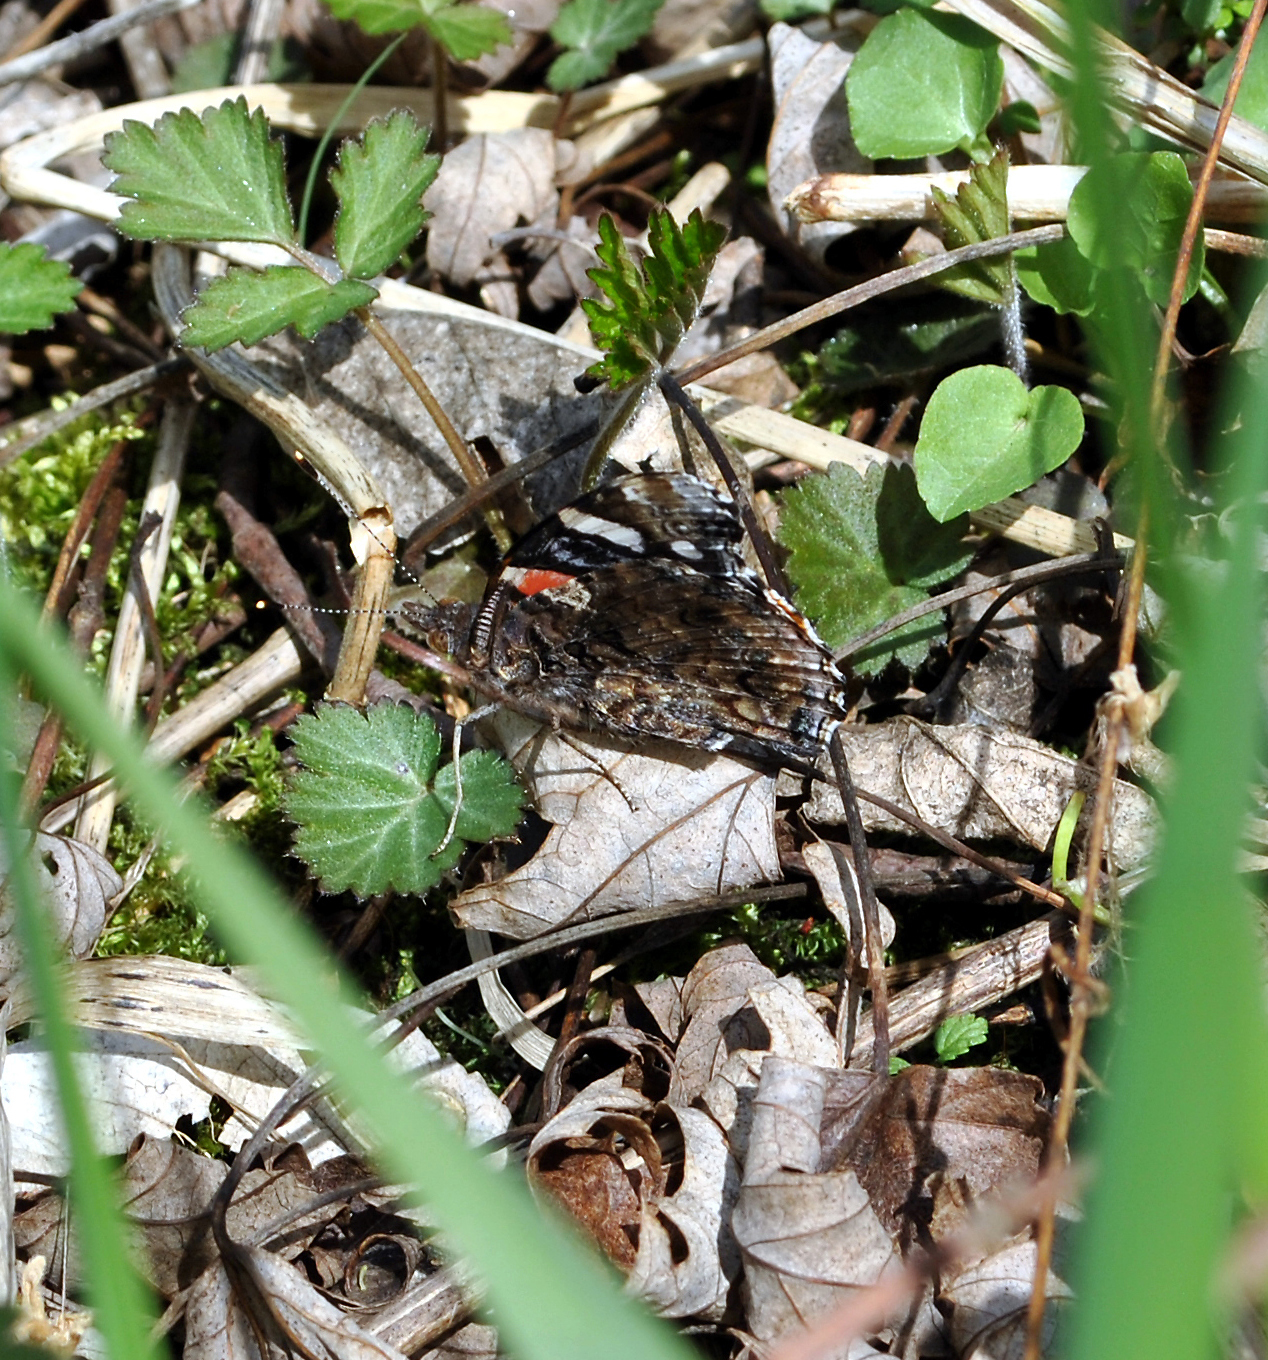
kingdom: Animalia
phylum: Arthropoda
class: Insecta
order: Lepidoptera
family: Nymphalidae
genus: Vanessa
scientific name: Vanessa atalanta
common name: Red admiral
